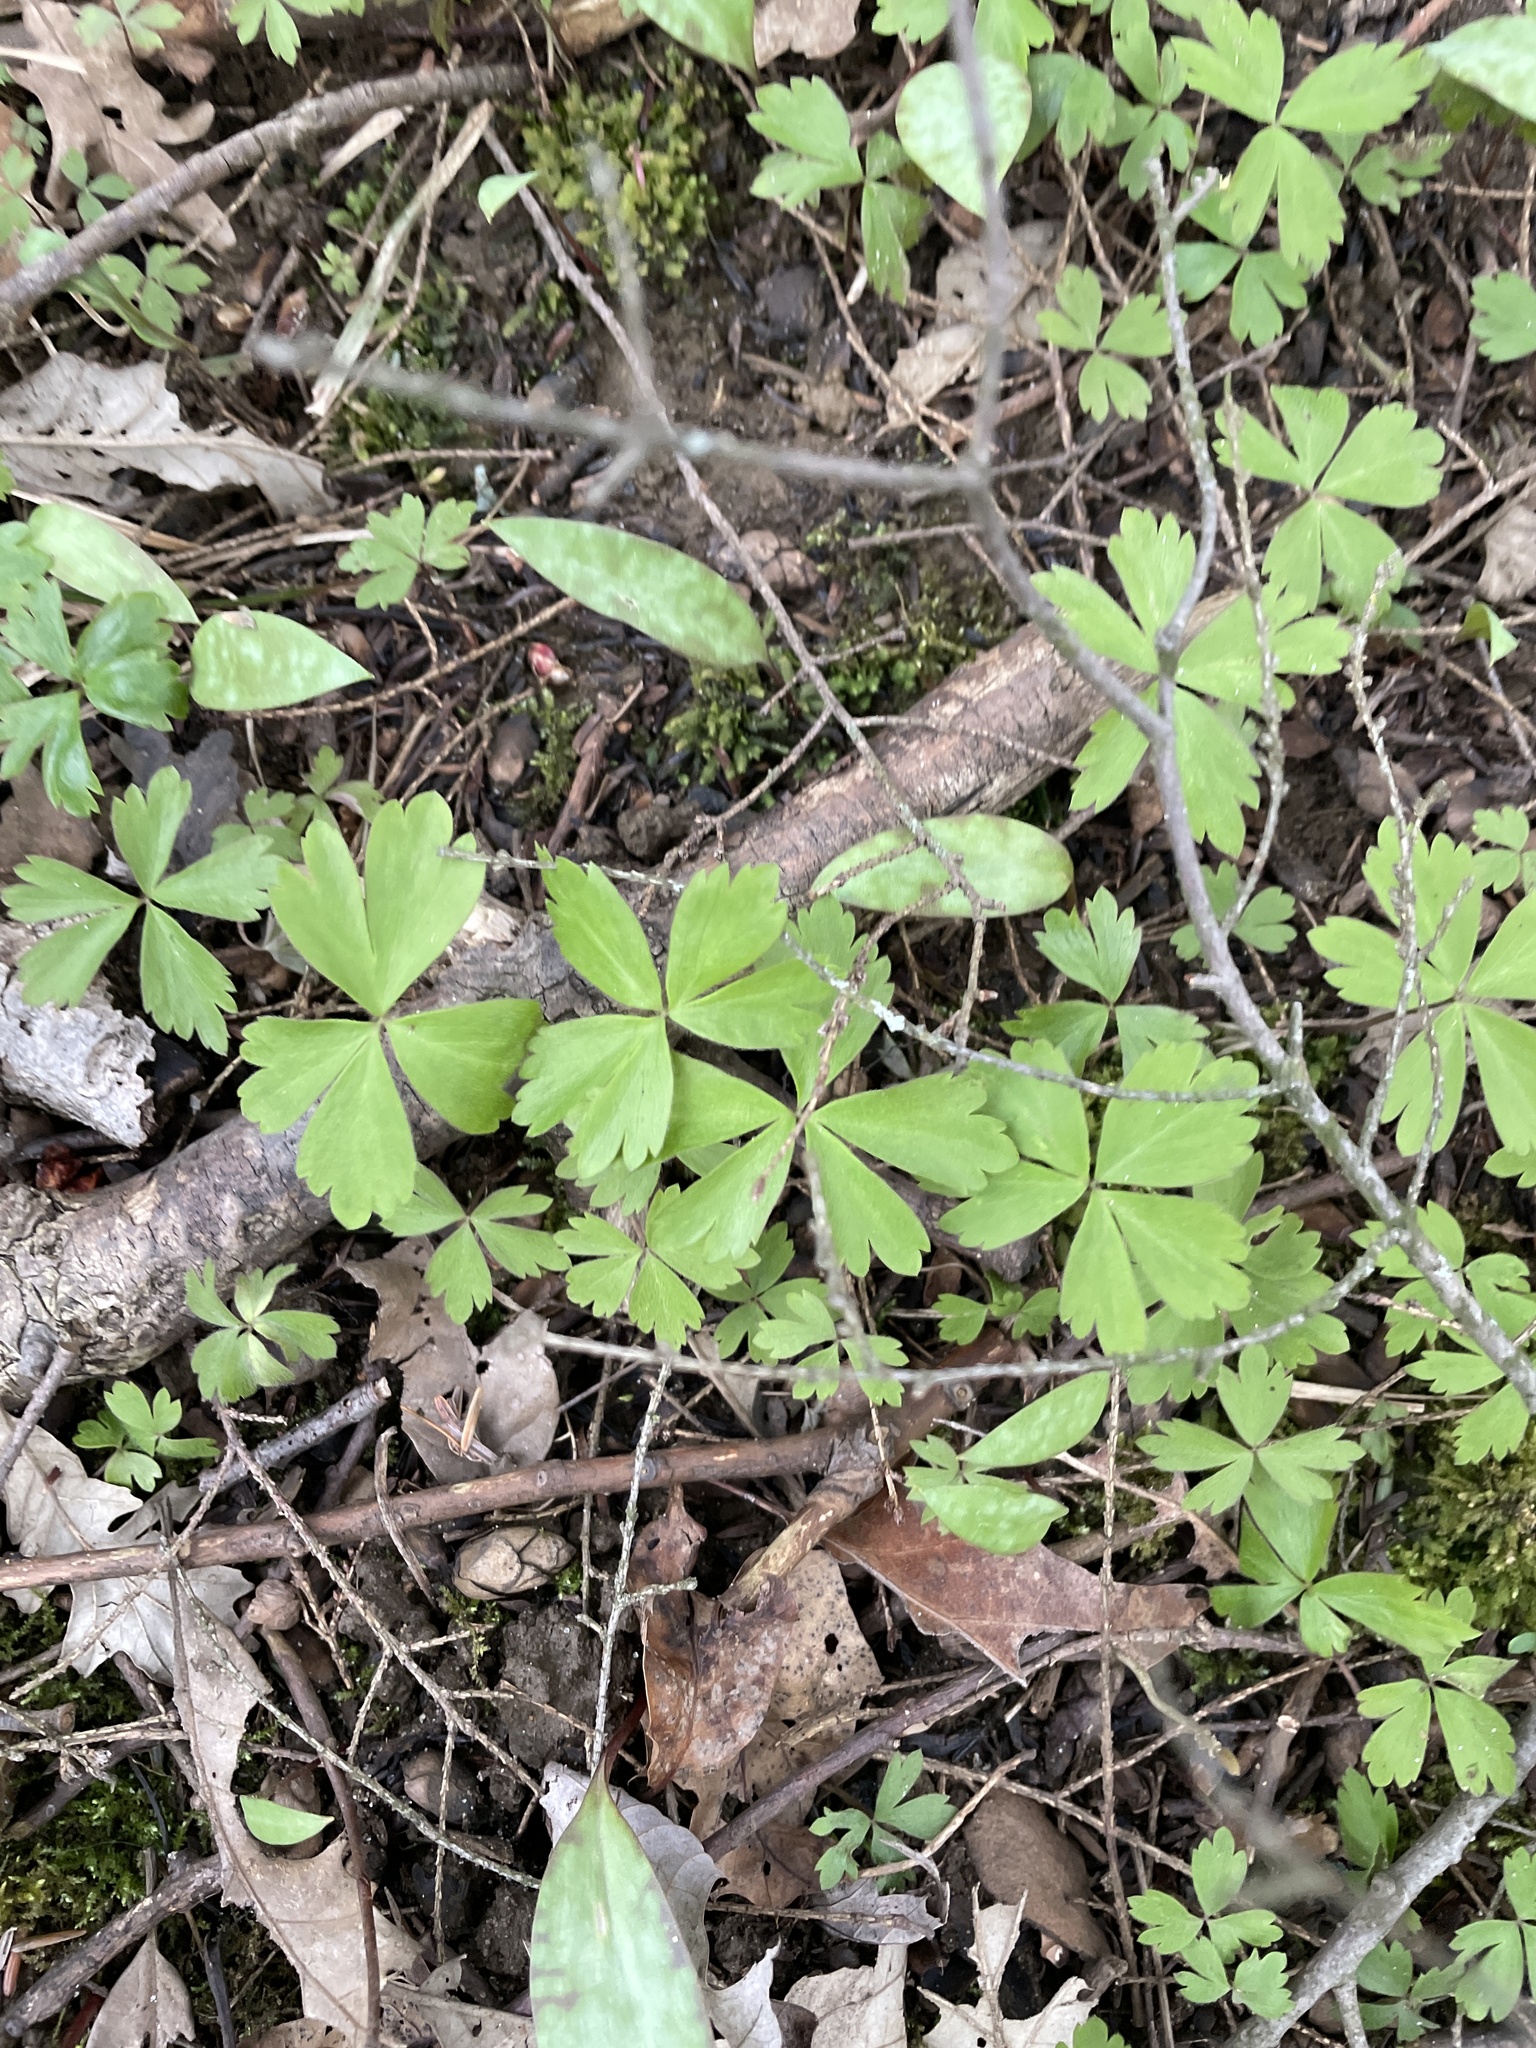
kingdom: Plantae
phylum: Tracheophyta
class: Magnoliopsida
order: Ranunculales
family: Ranunculaceae
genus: Anemone
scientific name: Anemone quinquefolia
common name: Wood anemone
